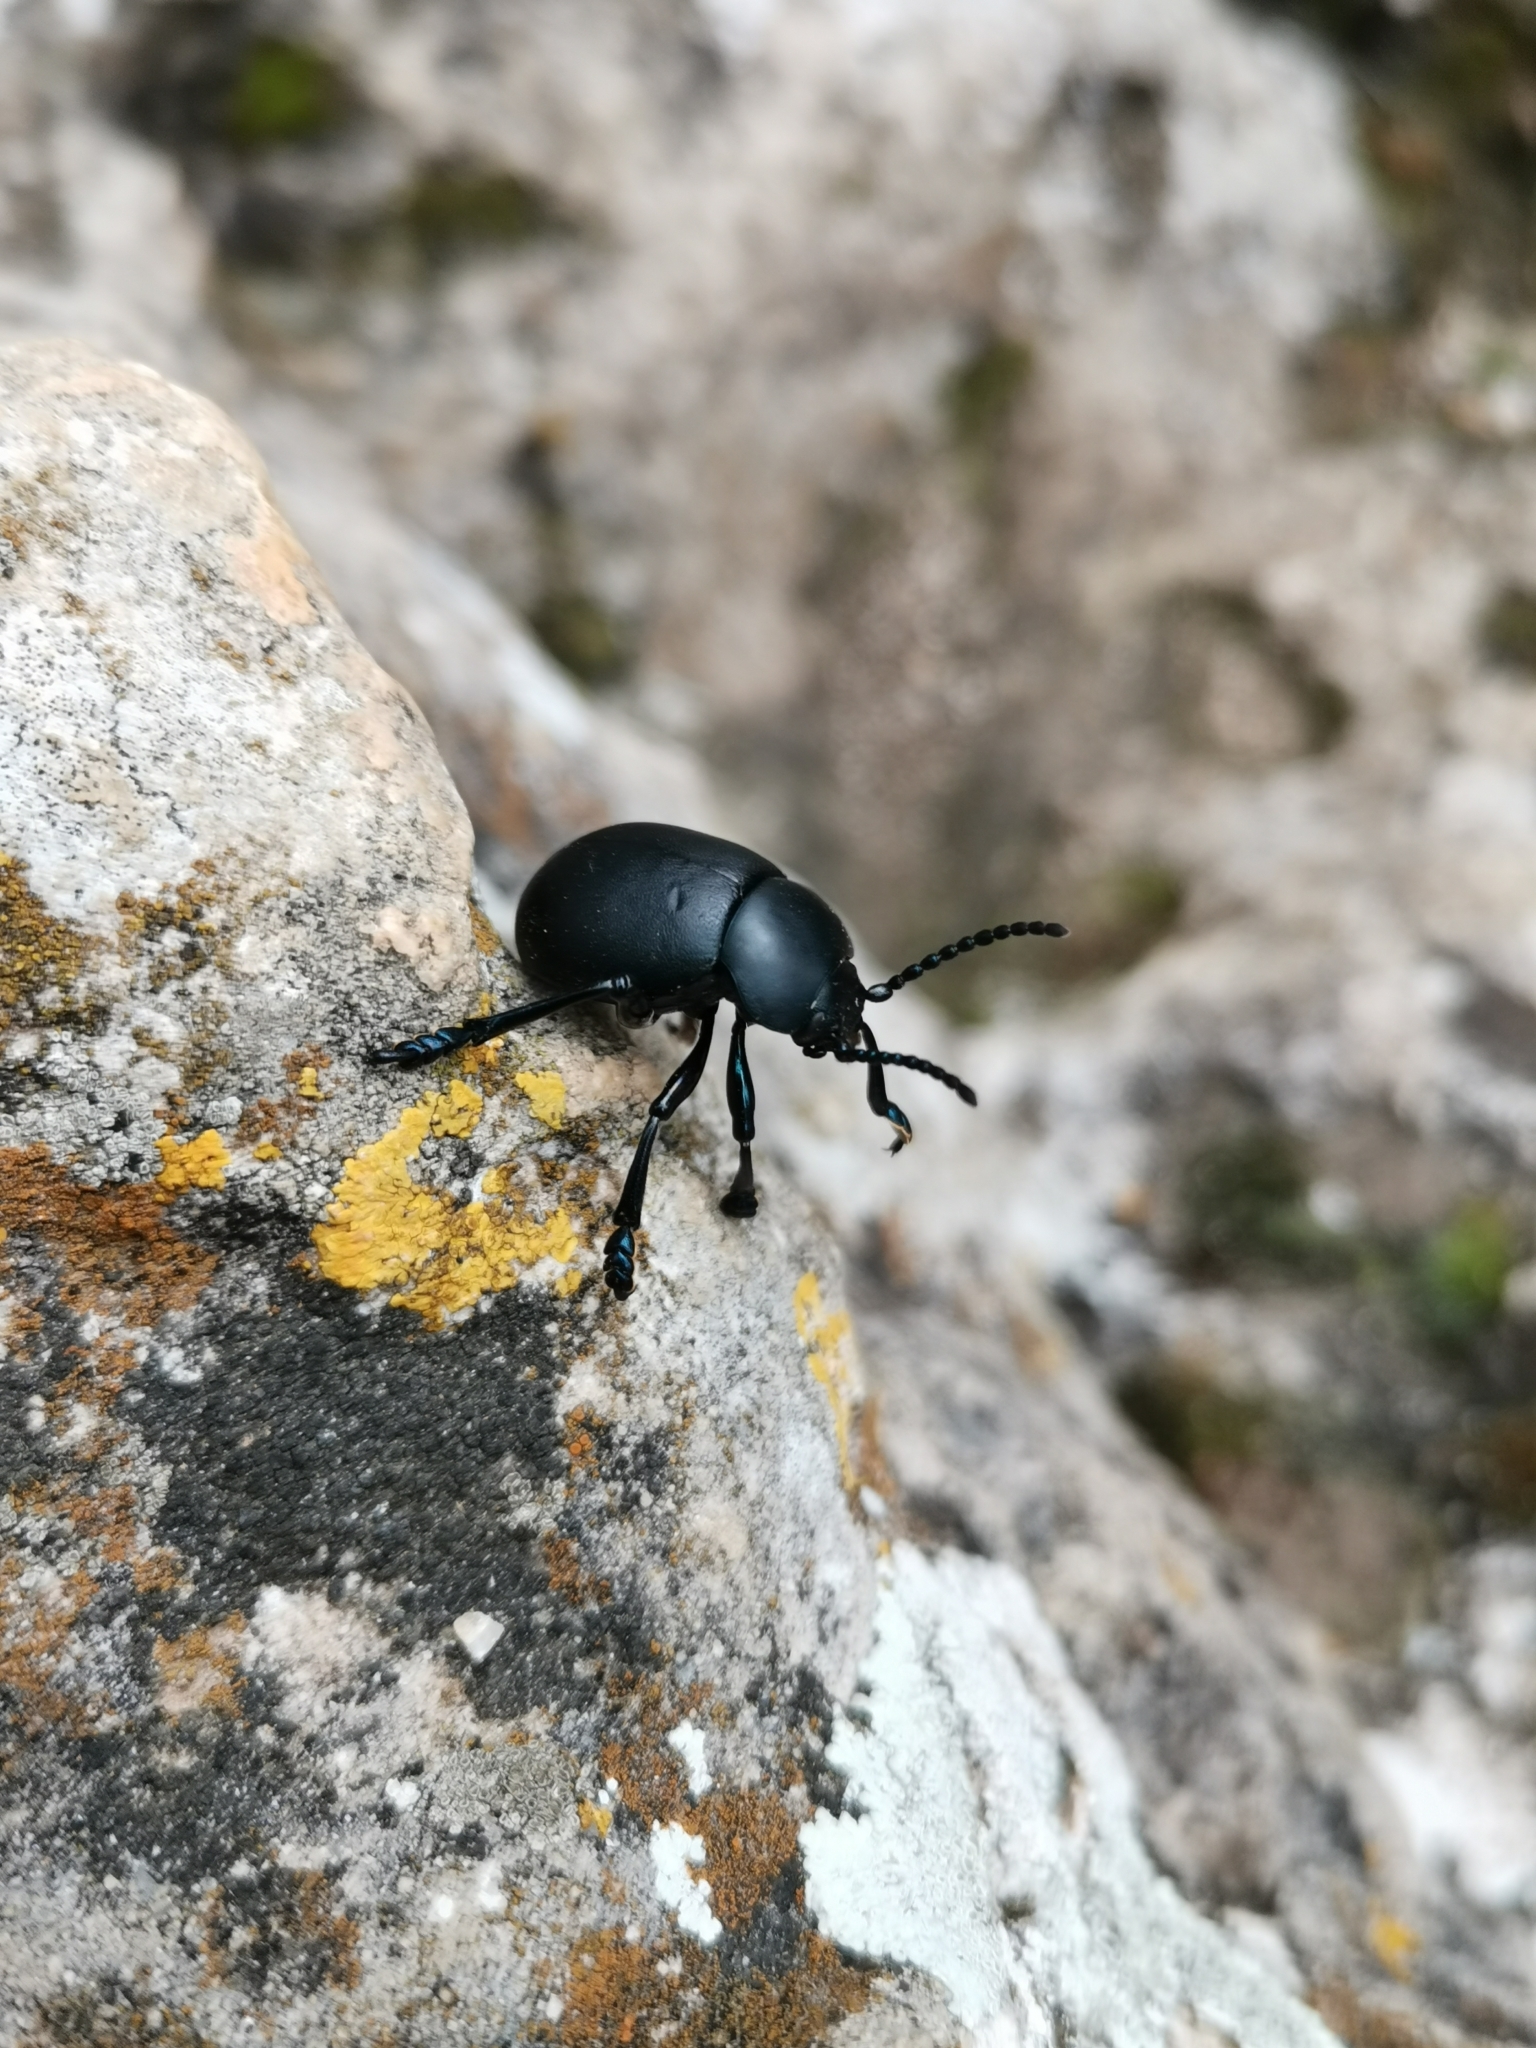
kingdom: Animalia
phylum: Arthropoda
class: Insecta
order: Coleoptera
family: Chrysomelidae
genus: Timarcha
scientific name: Timarcha tenebricosa
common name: Bloody-nosed beetle
